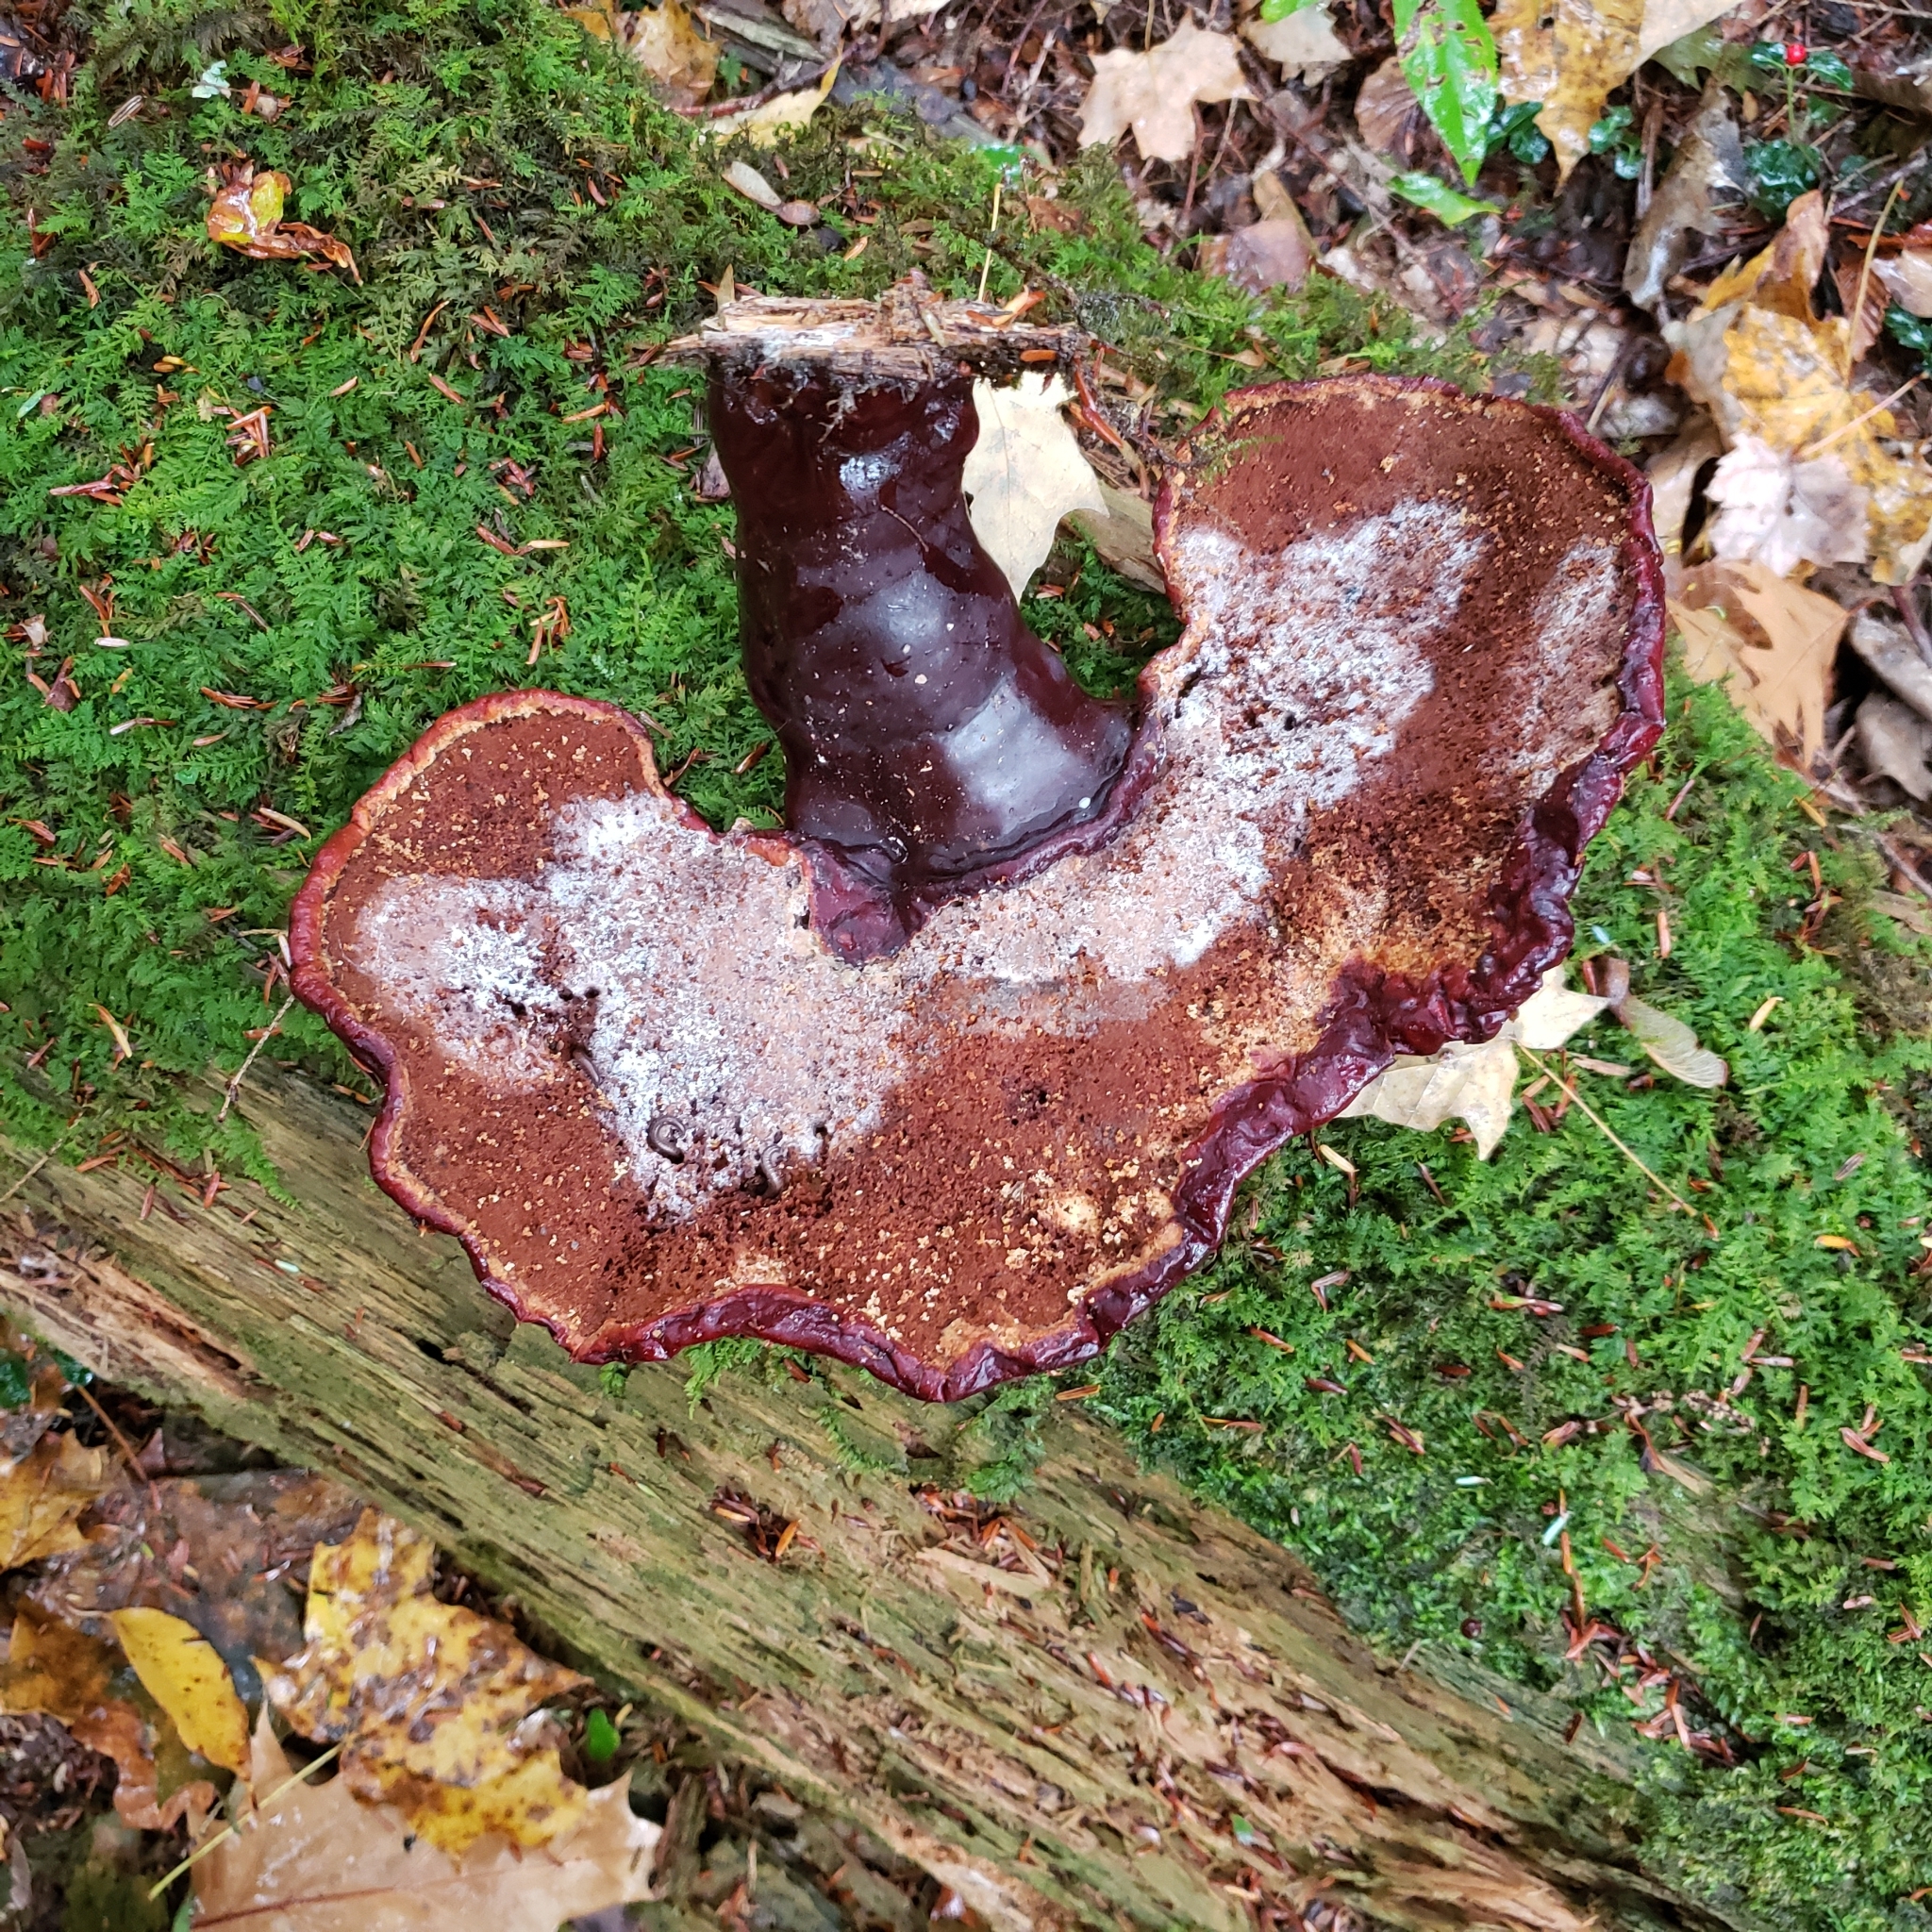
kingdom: Fungi
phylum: Basidiomycota
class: Agaricomycetes
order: Polyporales
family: Polyporaceae
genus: Ganoderma
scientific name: Ganoderma tsugae
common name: Hemlock varnish shelf
